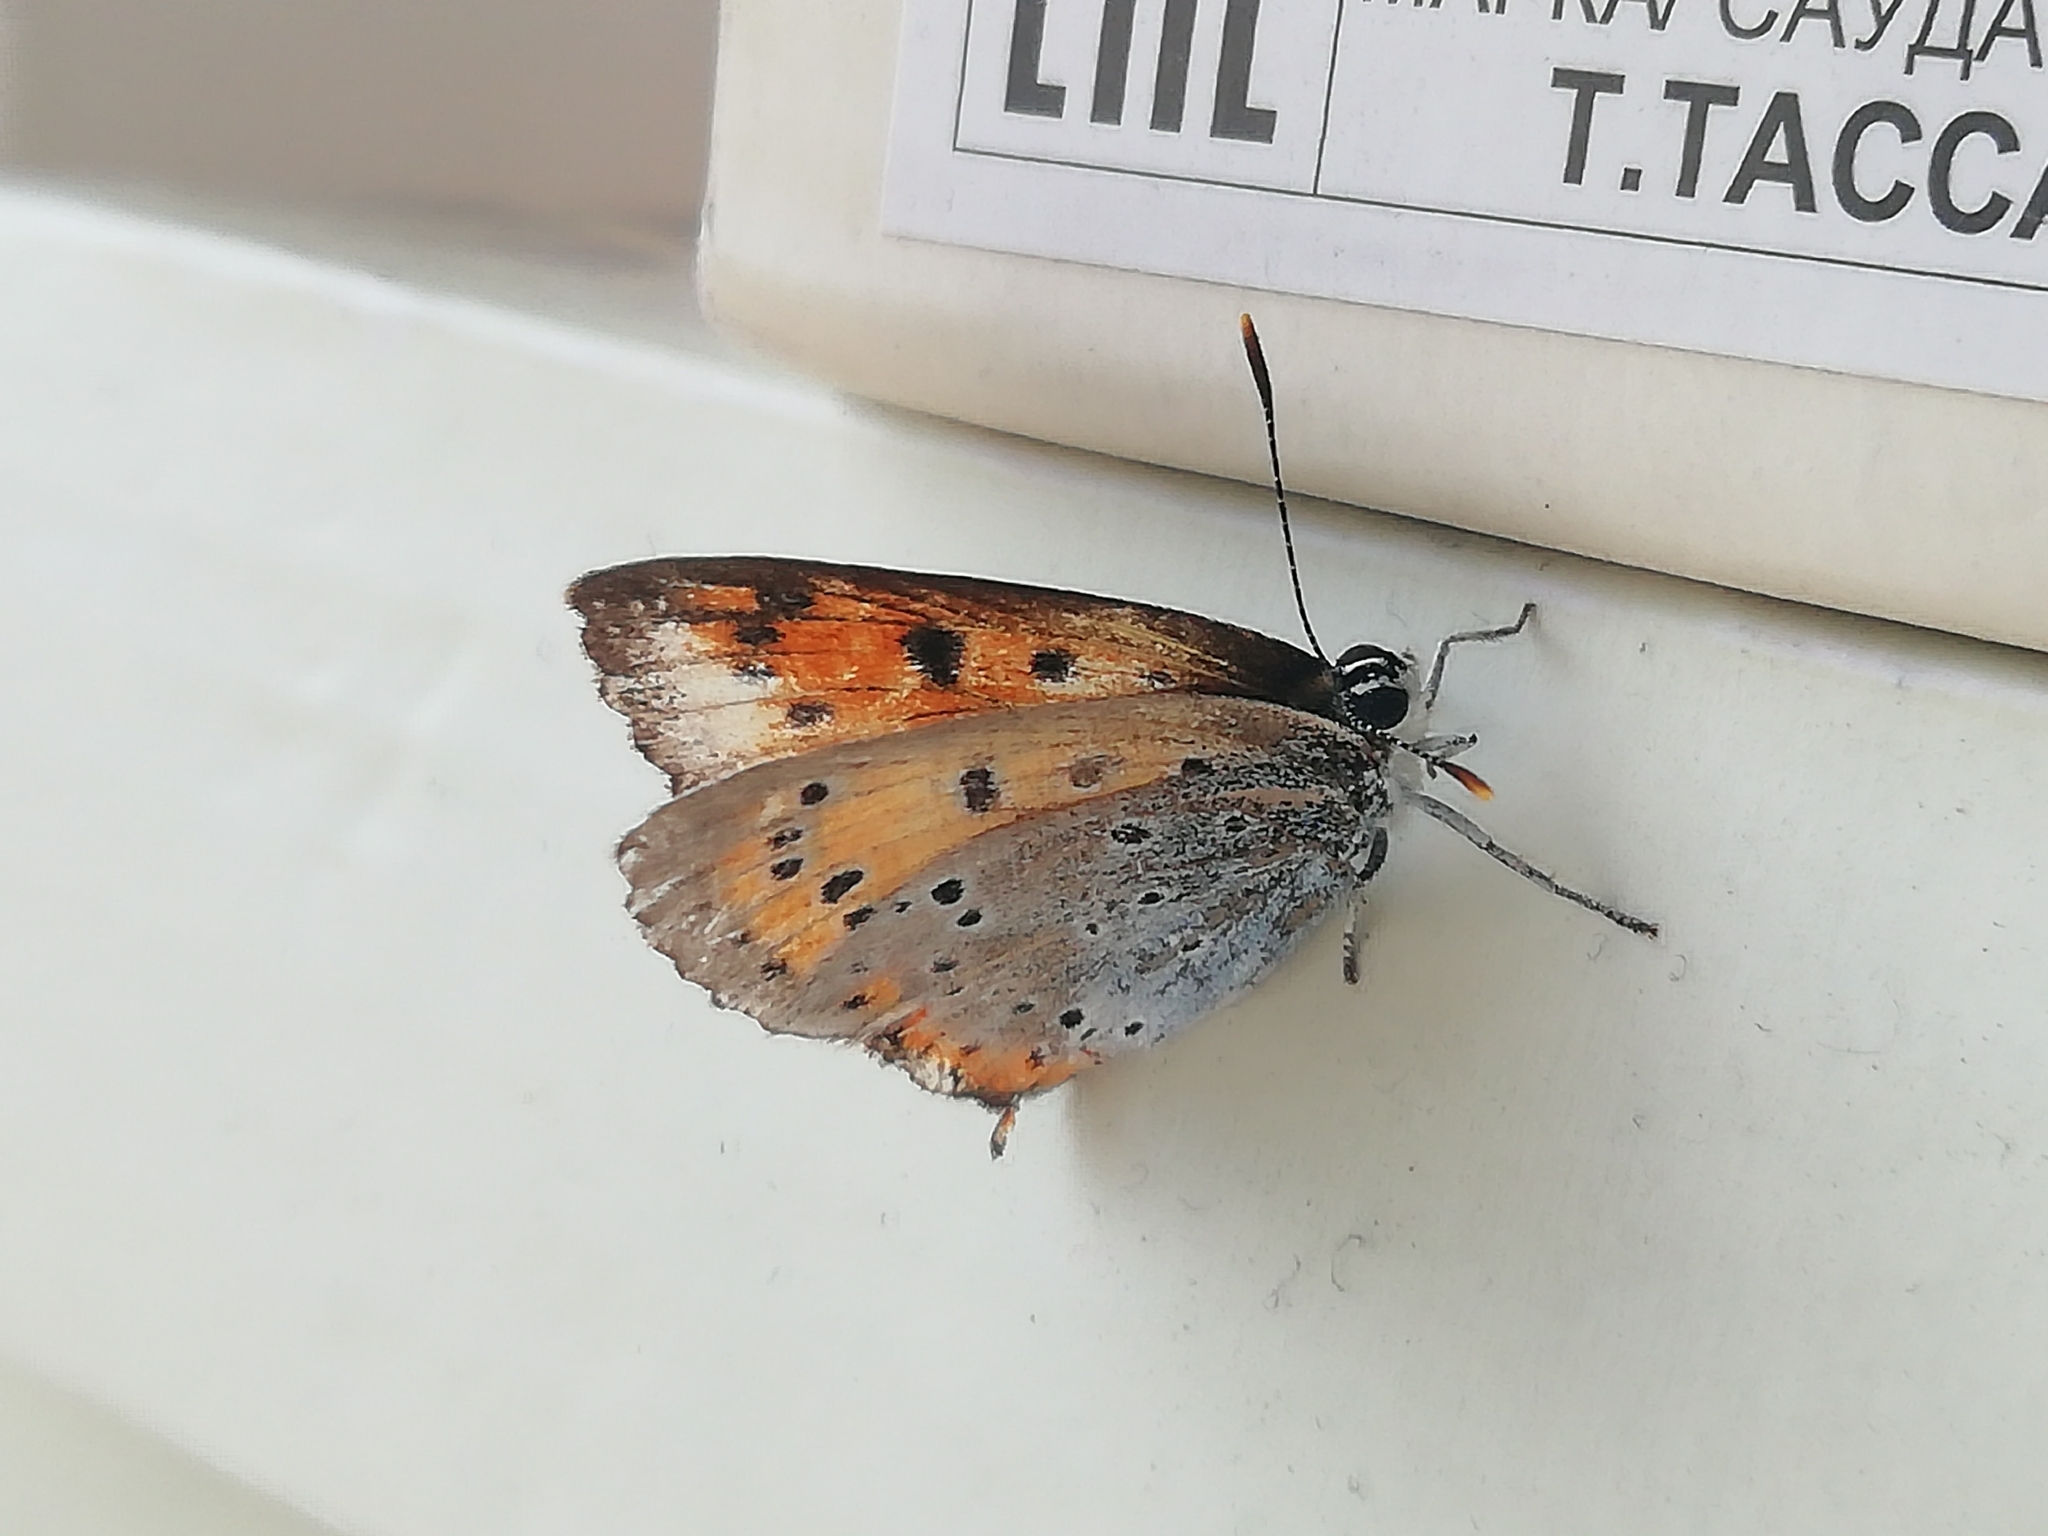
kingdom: Animalia
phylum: Arthropoda
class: Insecta
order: Lepidoptera
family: Lycaenidae
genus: Lycaena
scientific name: Lycaena dispar
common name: Large copper
